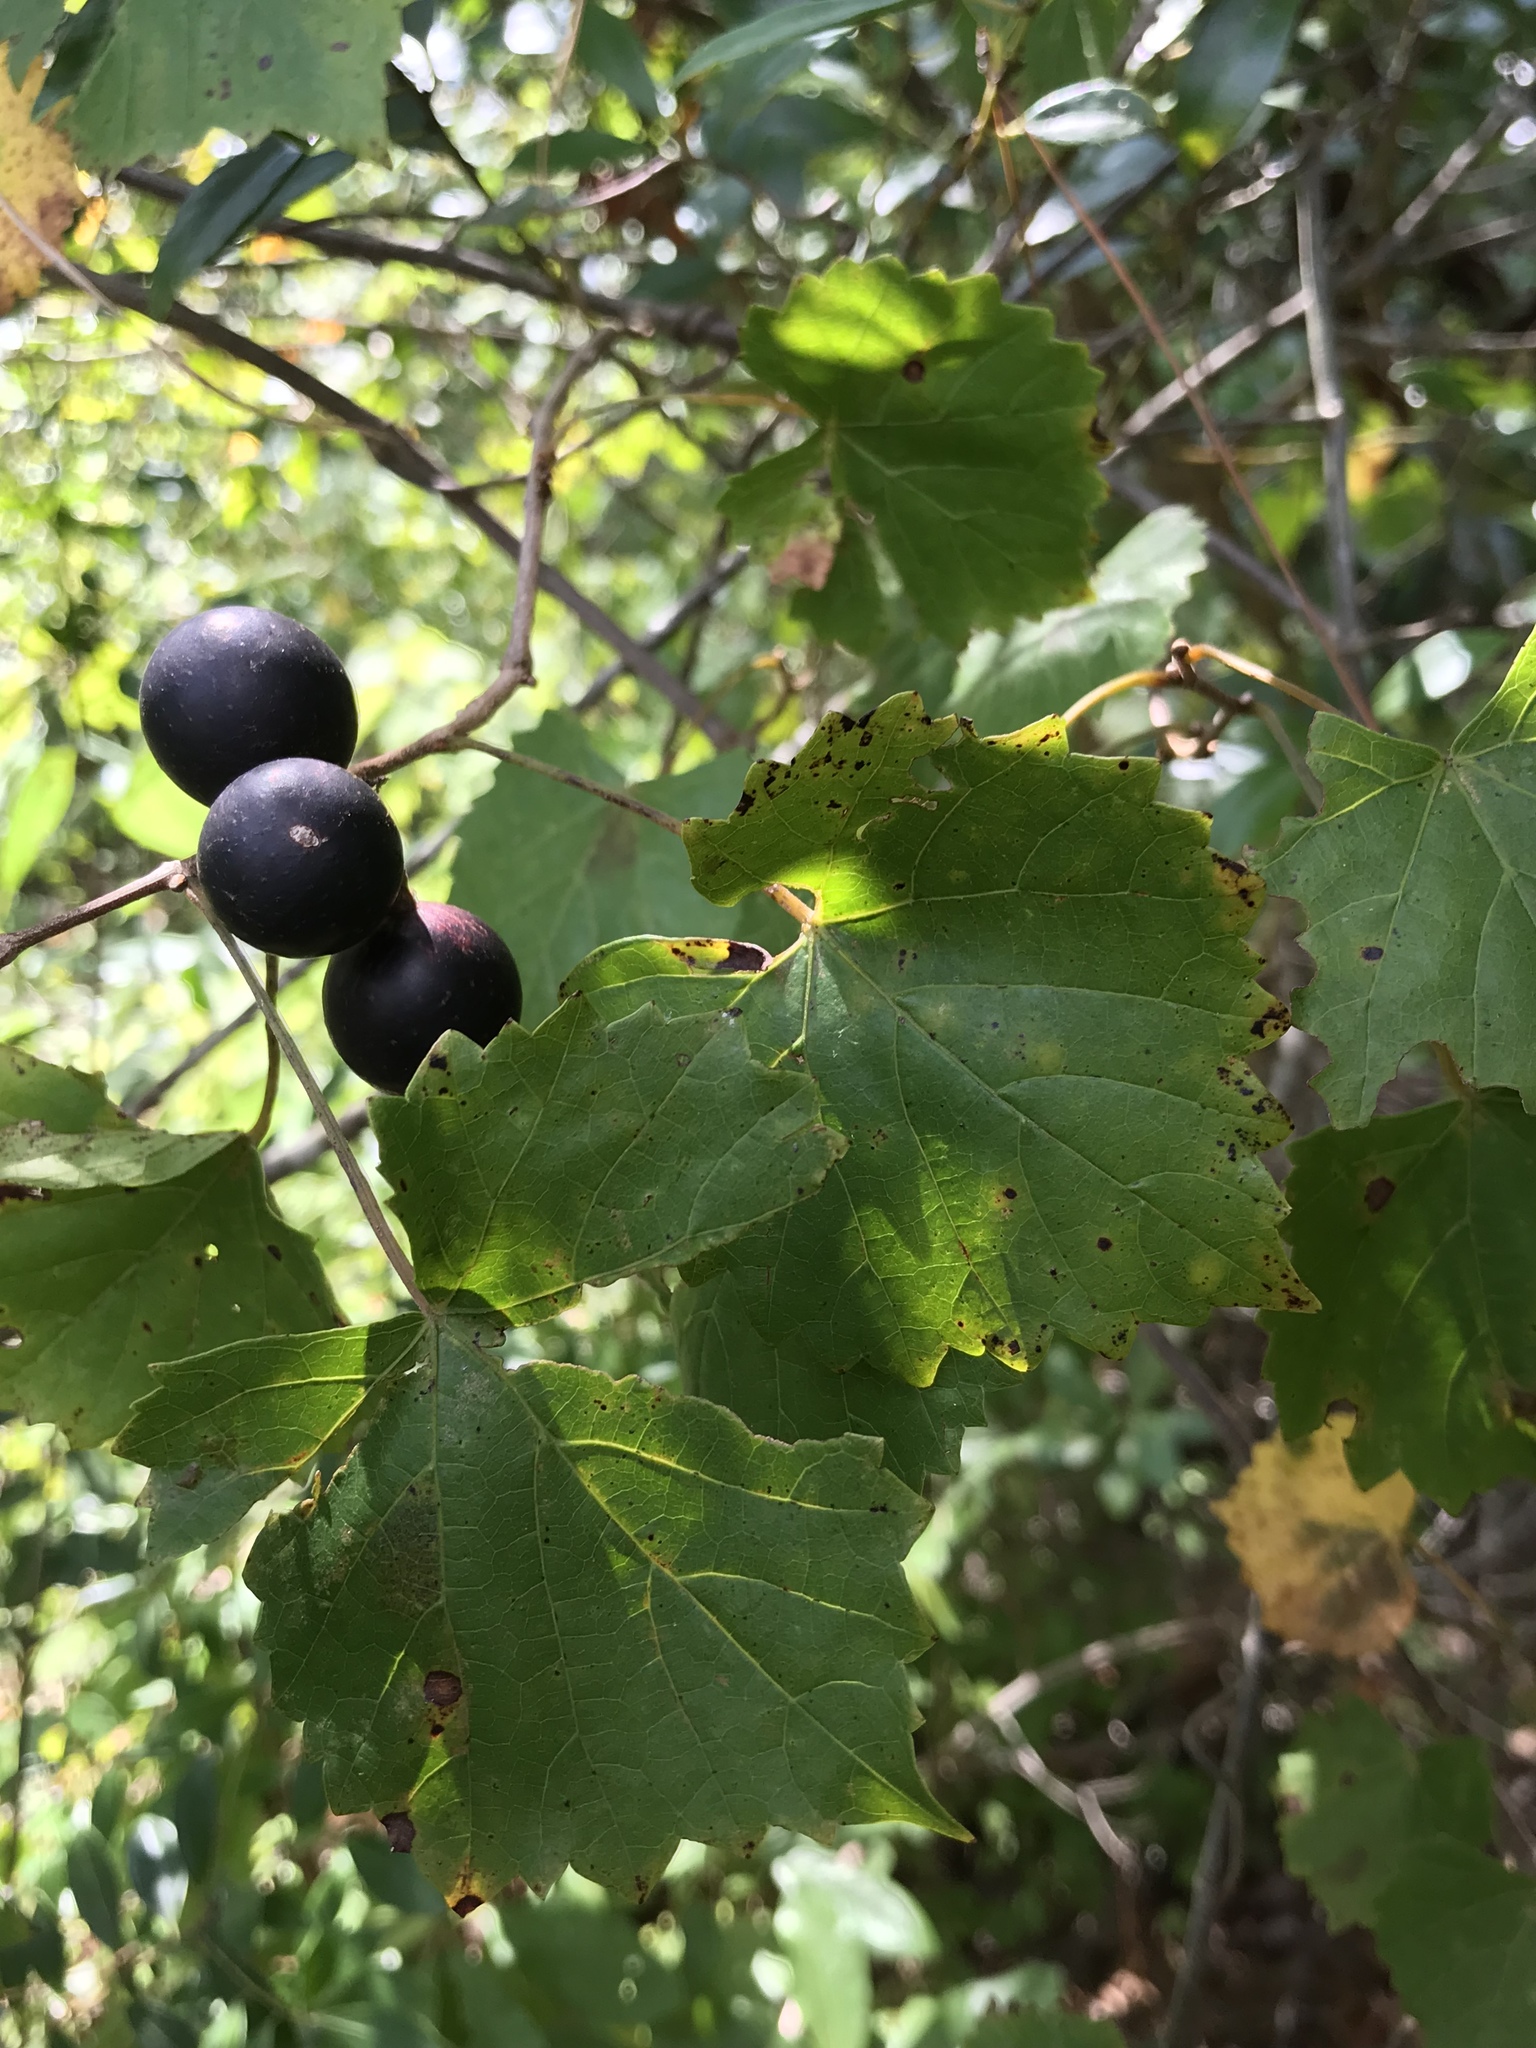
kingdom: Plantae
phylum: Tracheophyta
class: Magnoliopsida
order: Vitales
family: Vitaceae
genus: Vitis
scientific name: Vitis rotundifolia
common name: Muscadine grape
